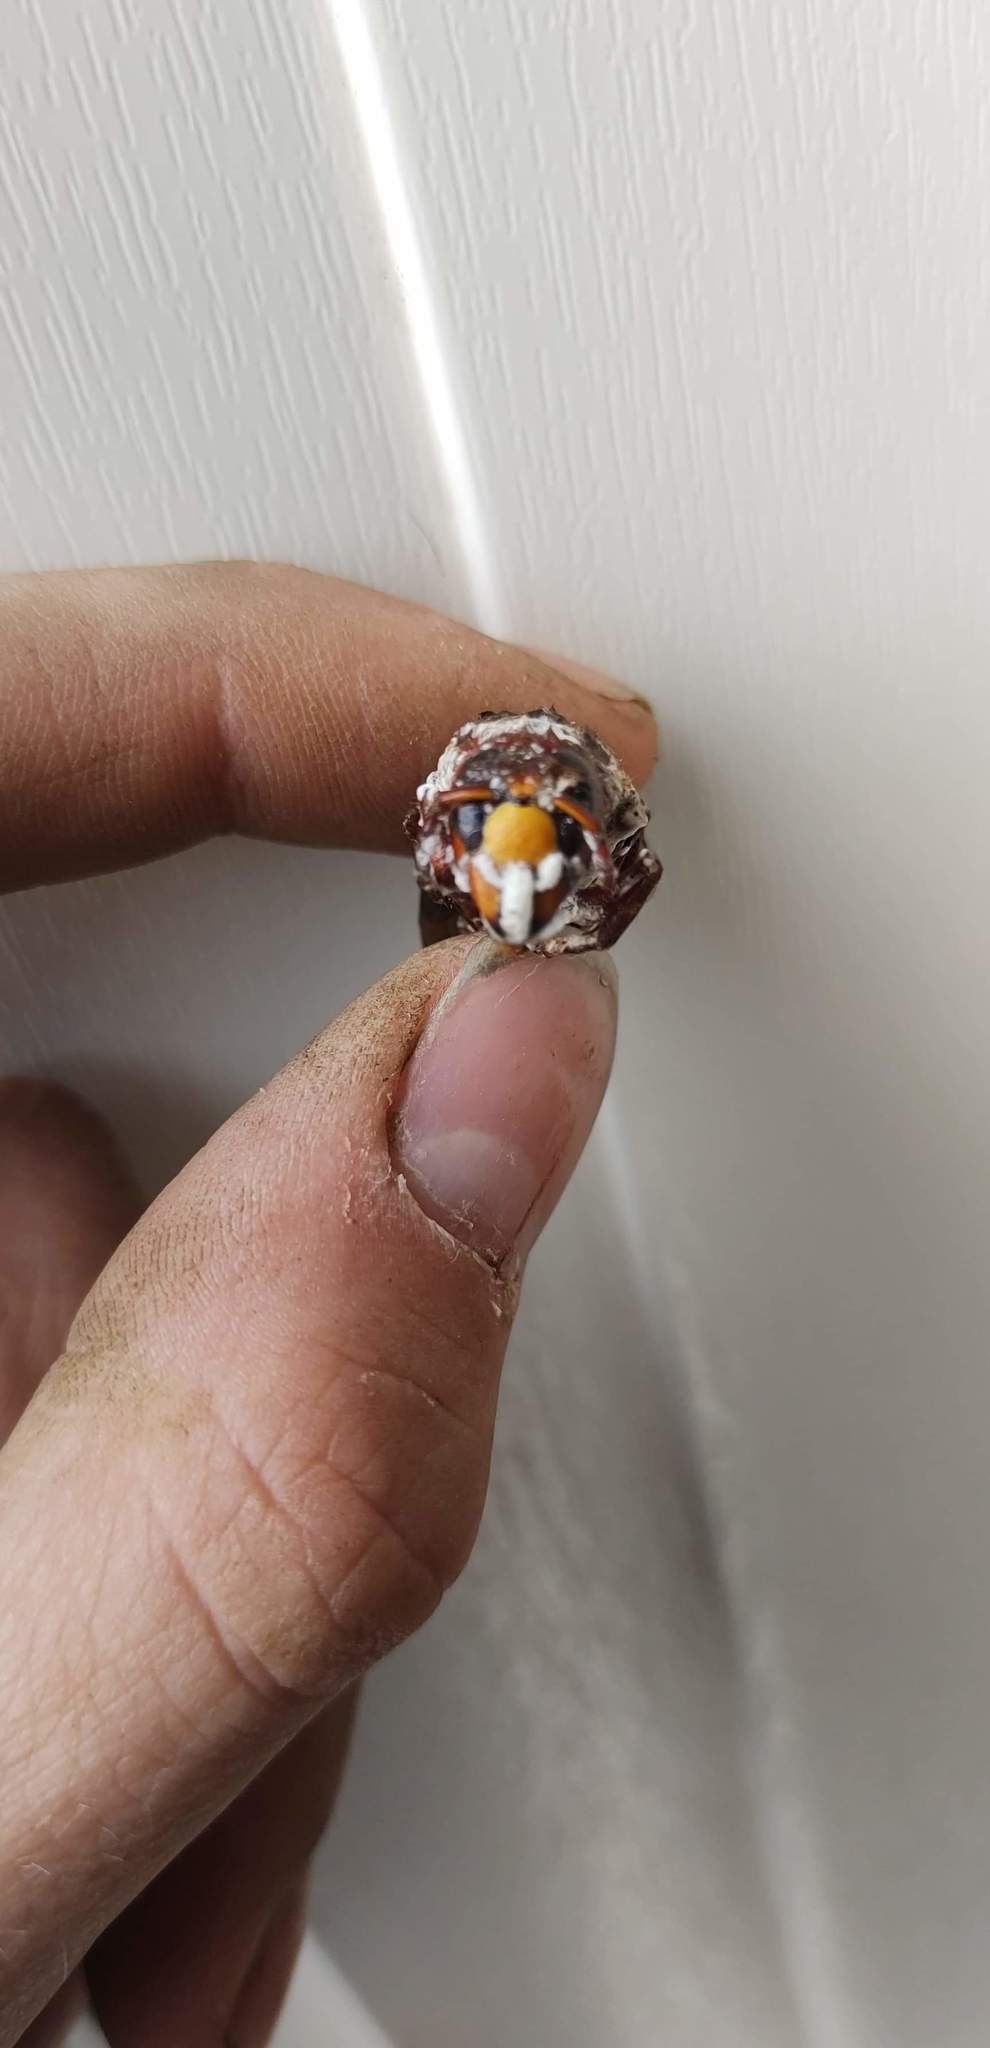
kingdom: Animalia
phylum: Arthropoda
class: Insecta
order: Hymenoptera
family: Vespidae
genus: Vespa
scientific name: Vespa crabro
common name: Hornet
